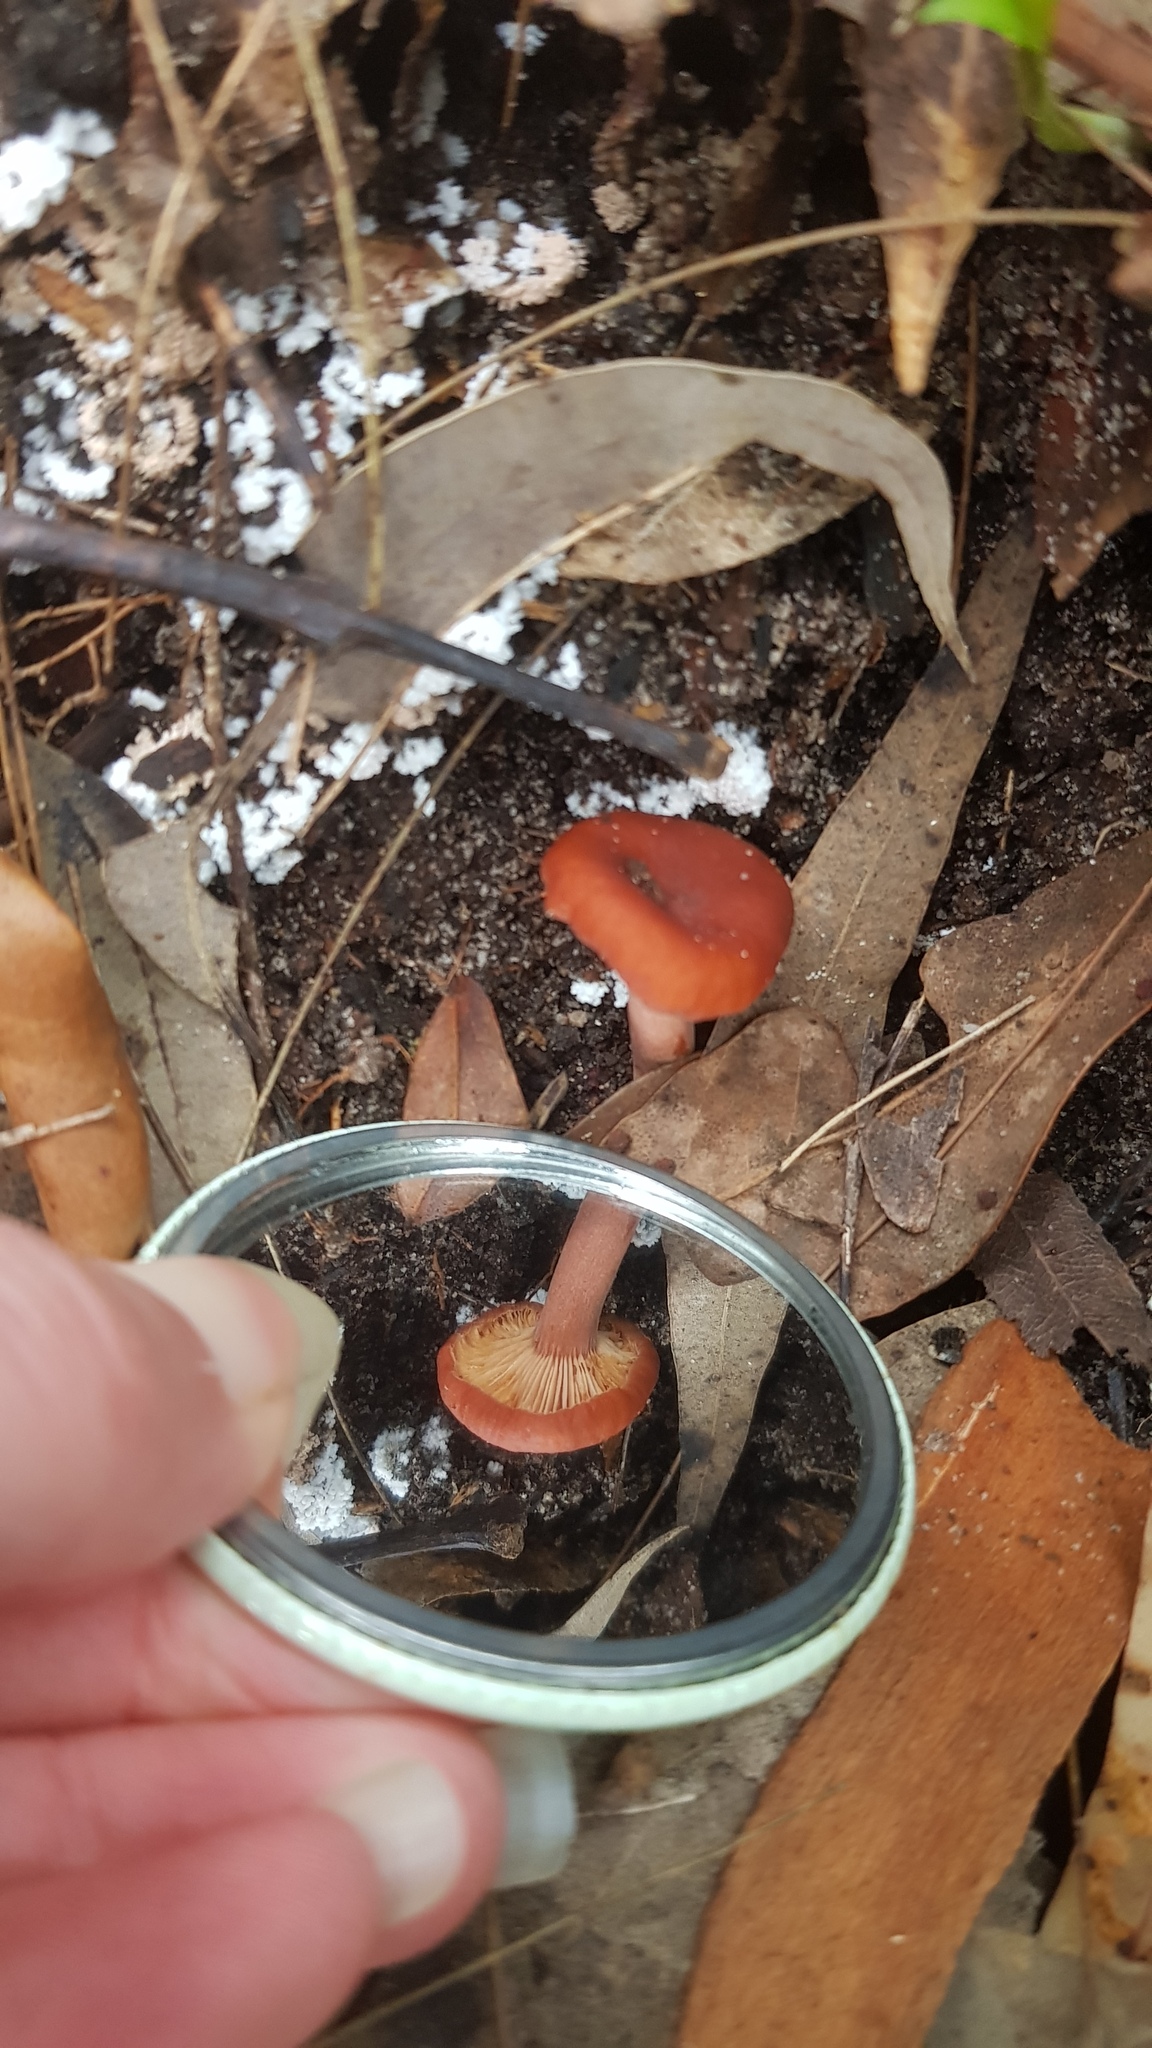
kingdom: Fungi
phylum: Basidiomycota
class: Agaricomycetes
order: Russulales
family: Russulaceae
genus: Lactarius
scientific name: Lactarius eucalypti
